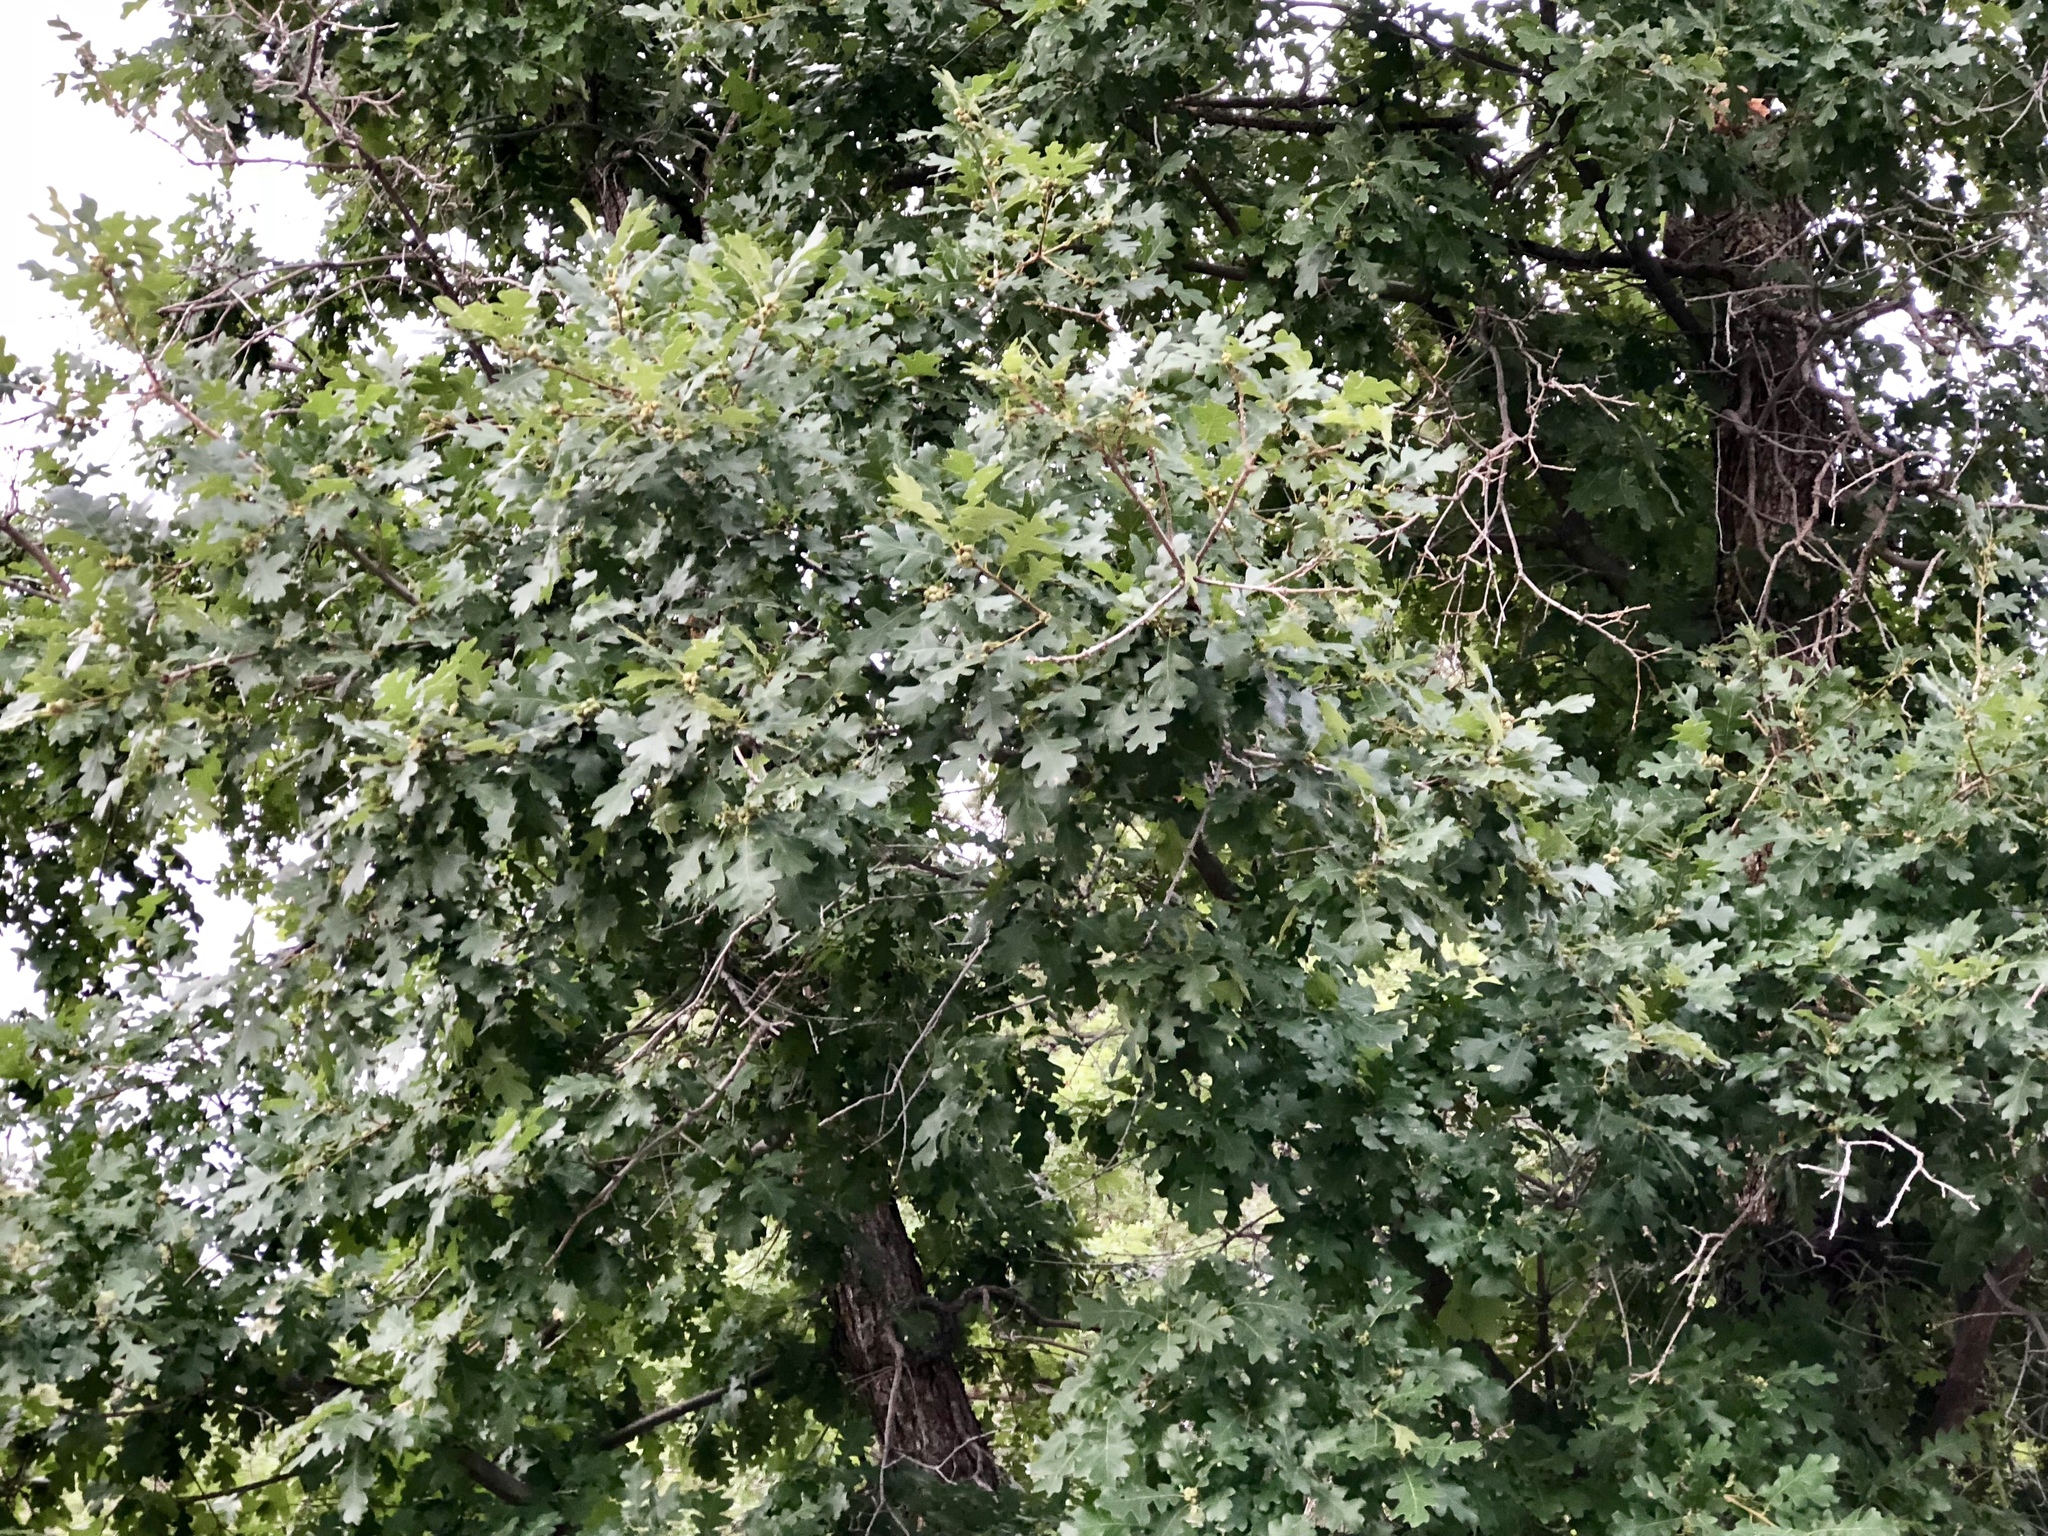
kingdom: Plantae
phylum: Tracheophyta
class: Magnoliopsida
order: Fagales
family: Fagaceae
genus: Quercus
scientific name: Quercus gambelii
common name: Gambel oak
